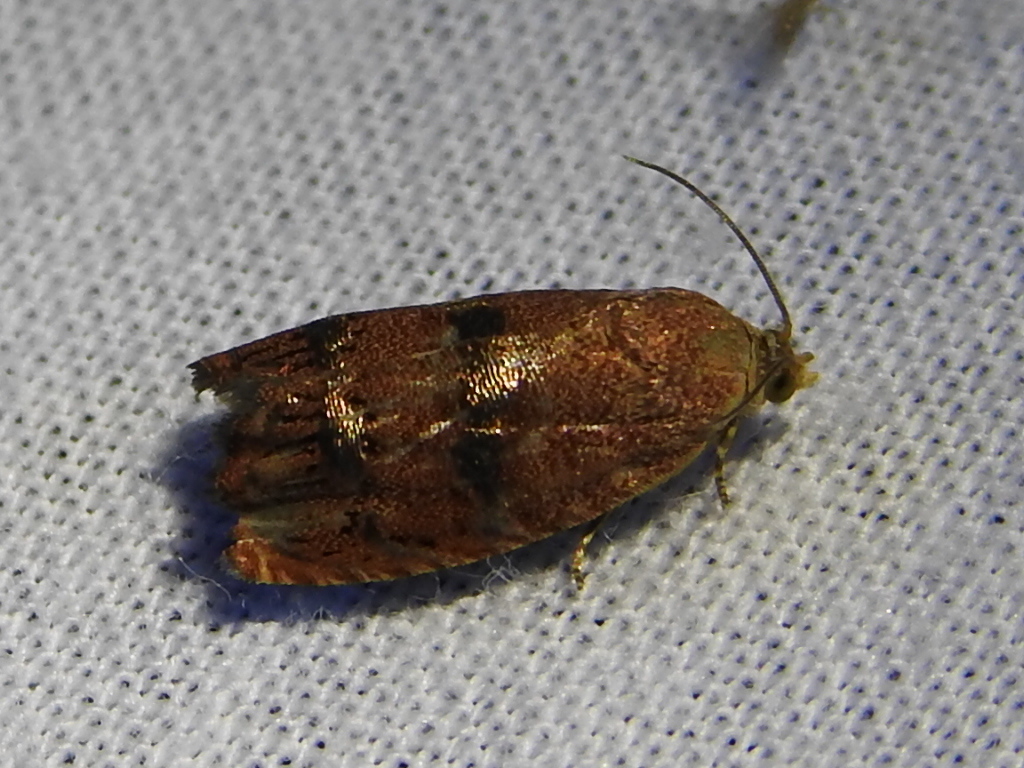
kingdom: Animalia
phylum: Arthropoda
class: Insecta
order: Lepidoptera
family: Tortricidae
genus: Cydia
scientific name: Cydia latiferreana
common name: Filbertworm moth
